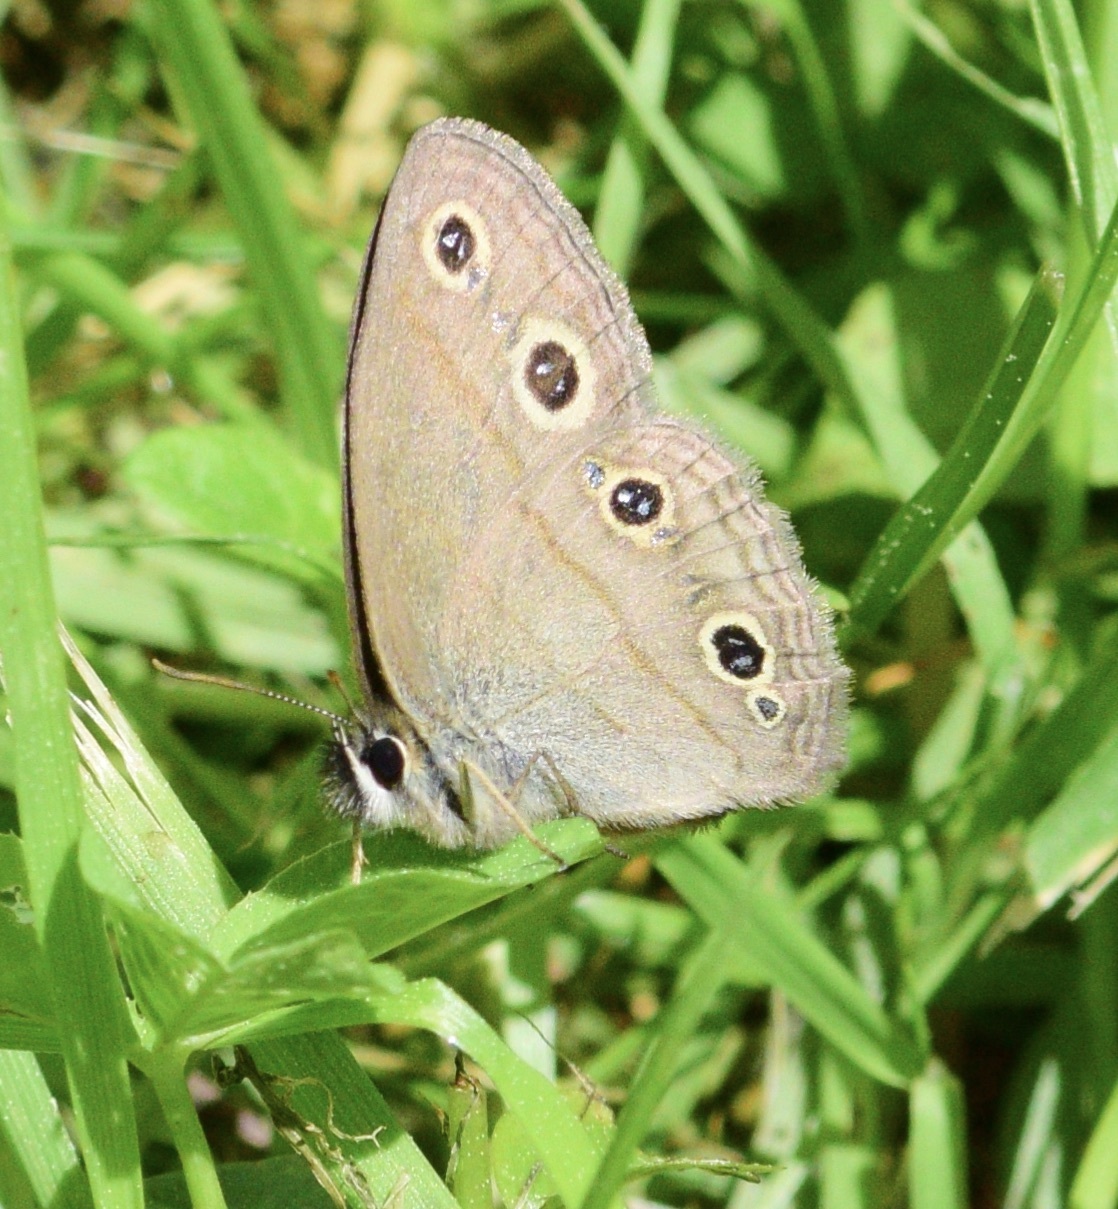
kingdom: Animalia
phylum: Arthropoda
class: Insecta
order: Lepidoptera
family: Nymphalidae
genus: Euptychia
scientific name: Euptychia cymela
